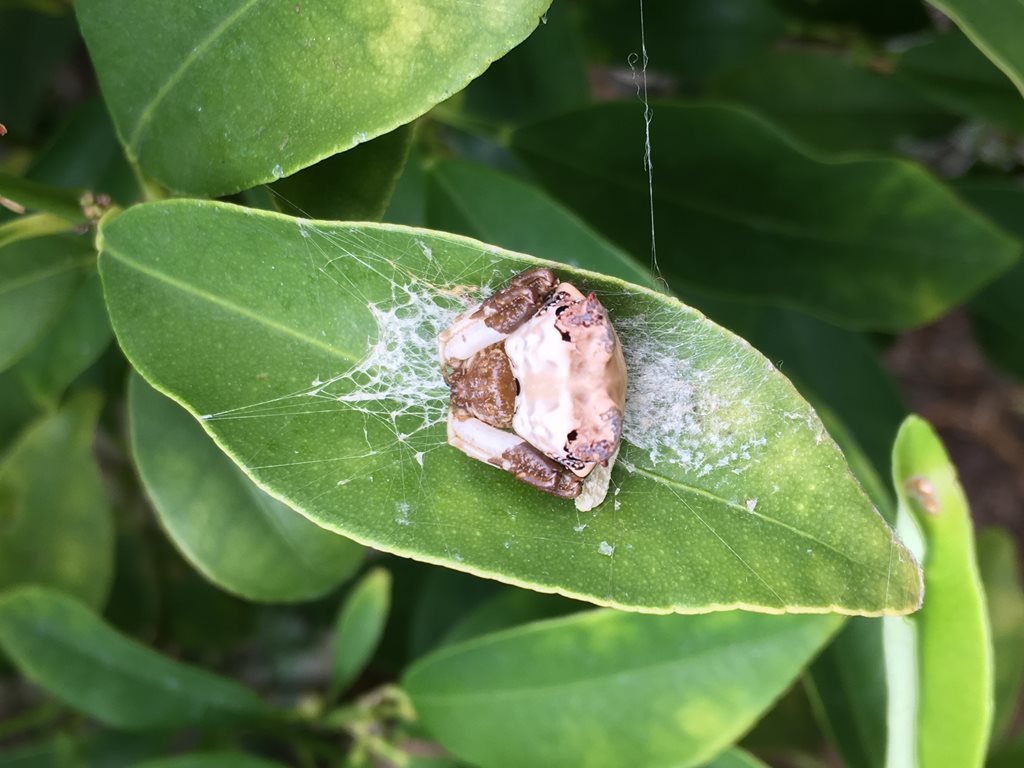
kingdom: Animalia
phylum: Arthropoda
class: Arachnida
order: Araneae
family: Araneidae
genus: Celaenia
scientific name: Celaenia excavata
